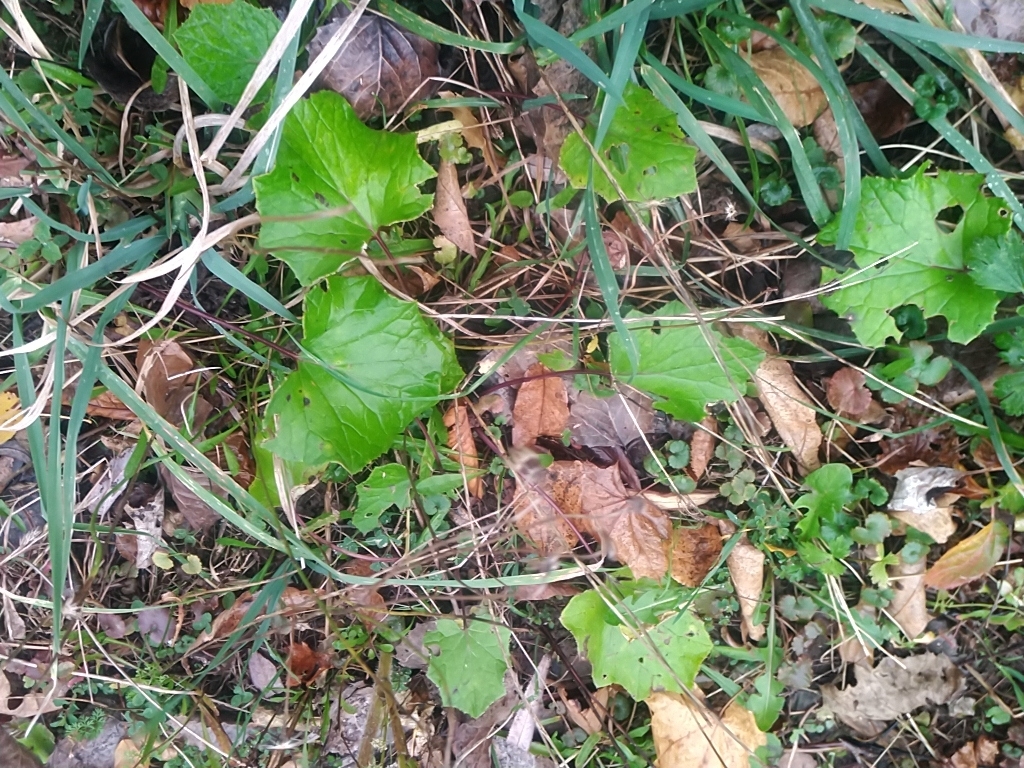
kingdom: Plantae
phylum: Tracheophyta
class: Magnoliopsida
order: Asterales
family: Asteraceae
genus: Tussilago
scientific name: Tussilago farfara
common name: Coltsfoot
